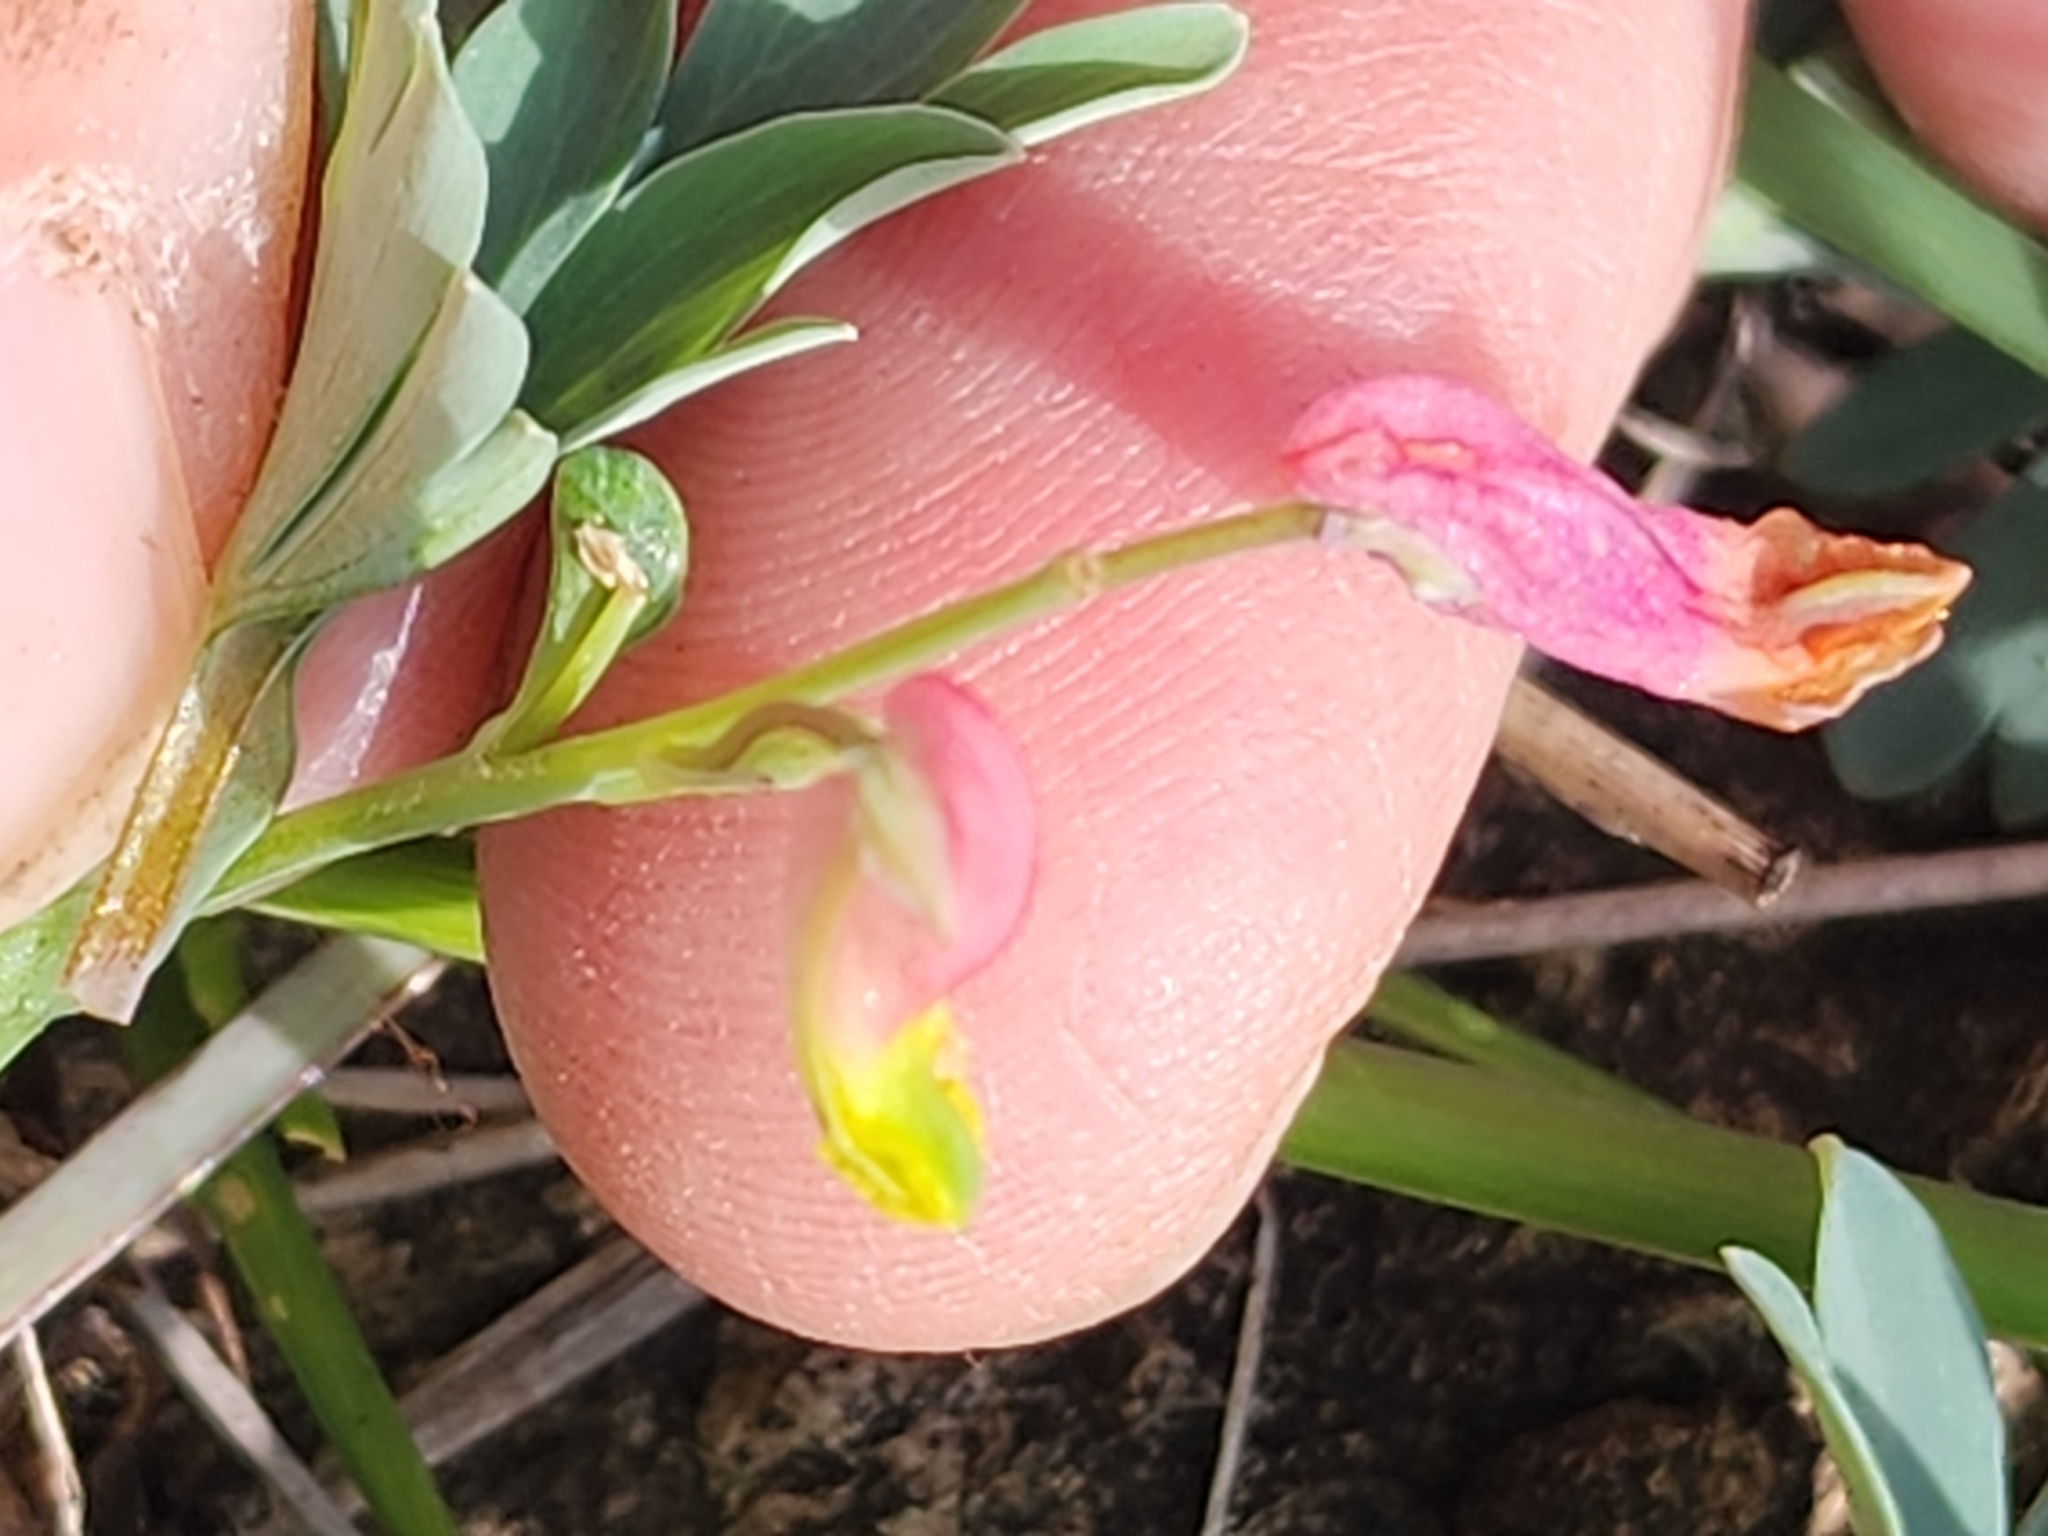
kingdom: Plantae
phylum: Tracheophyta
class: Magnoliopsida
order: Ranunculales
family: Papaveraceae
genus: Capnoides
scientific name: Capnoides sempervirens
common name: Rock harlequin
